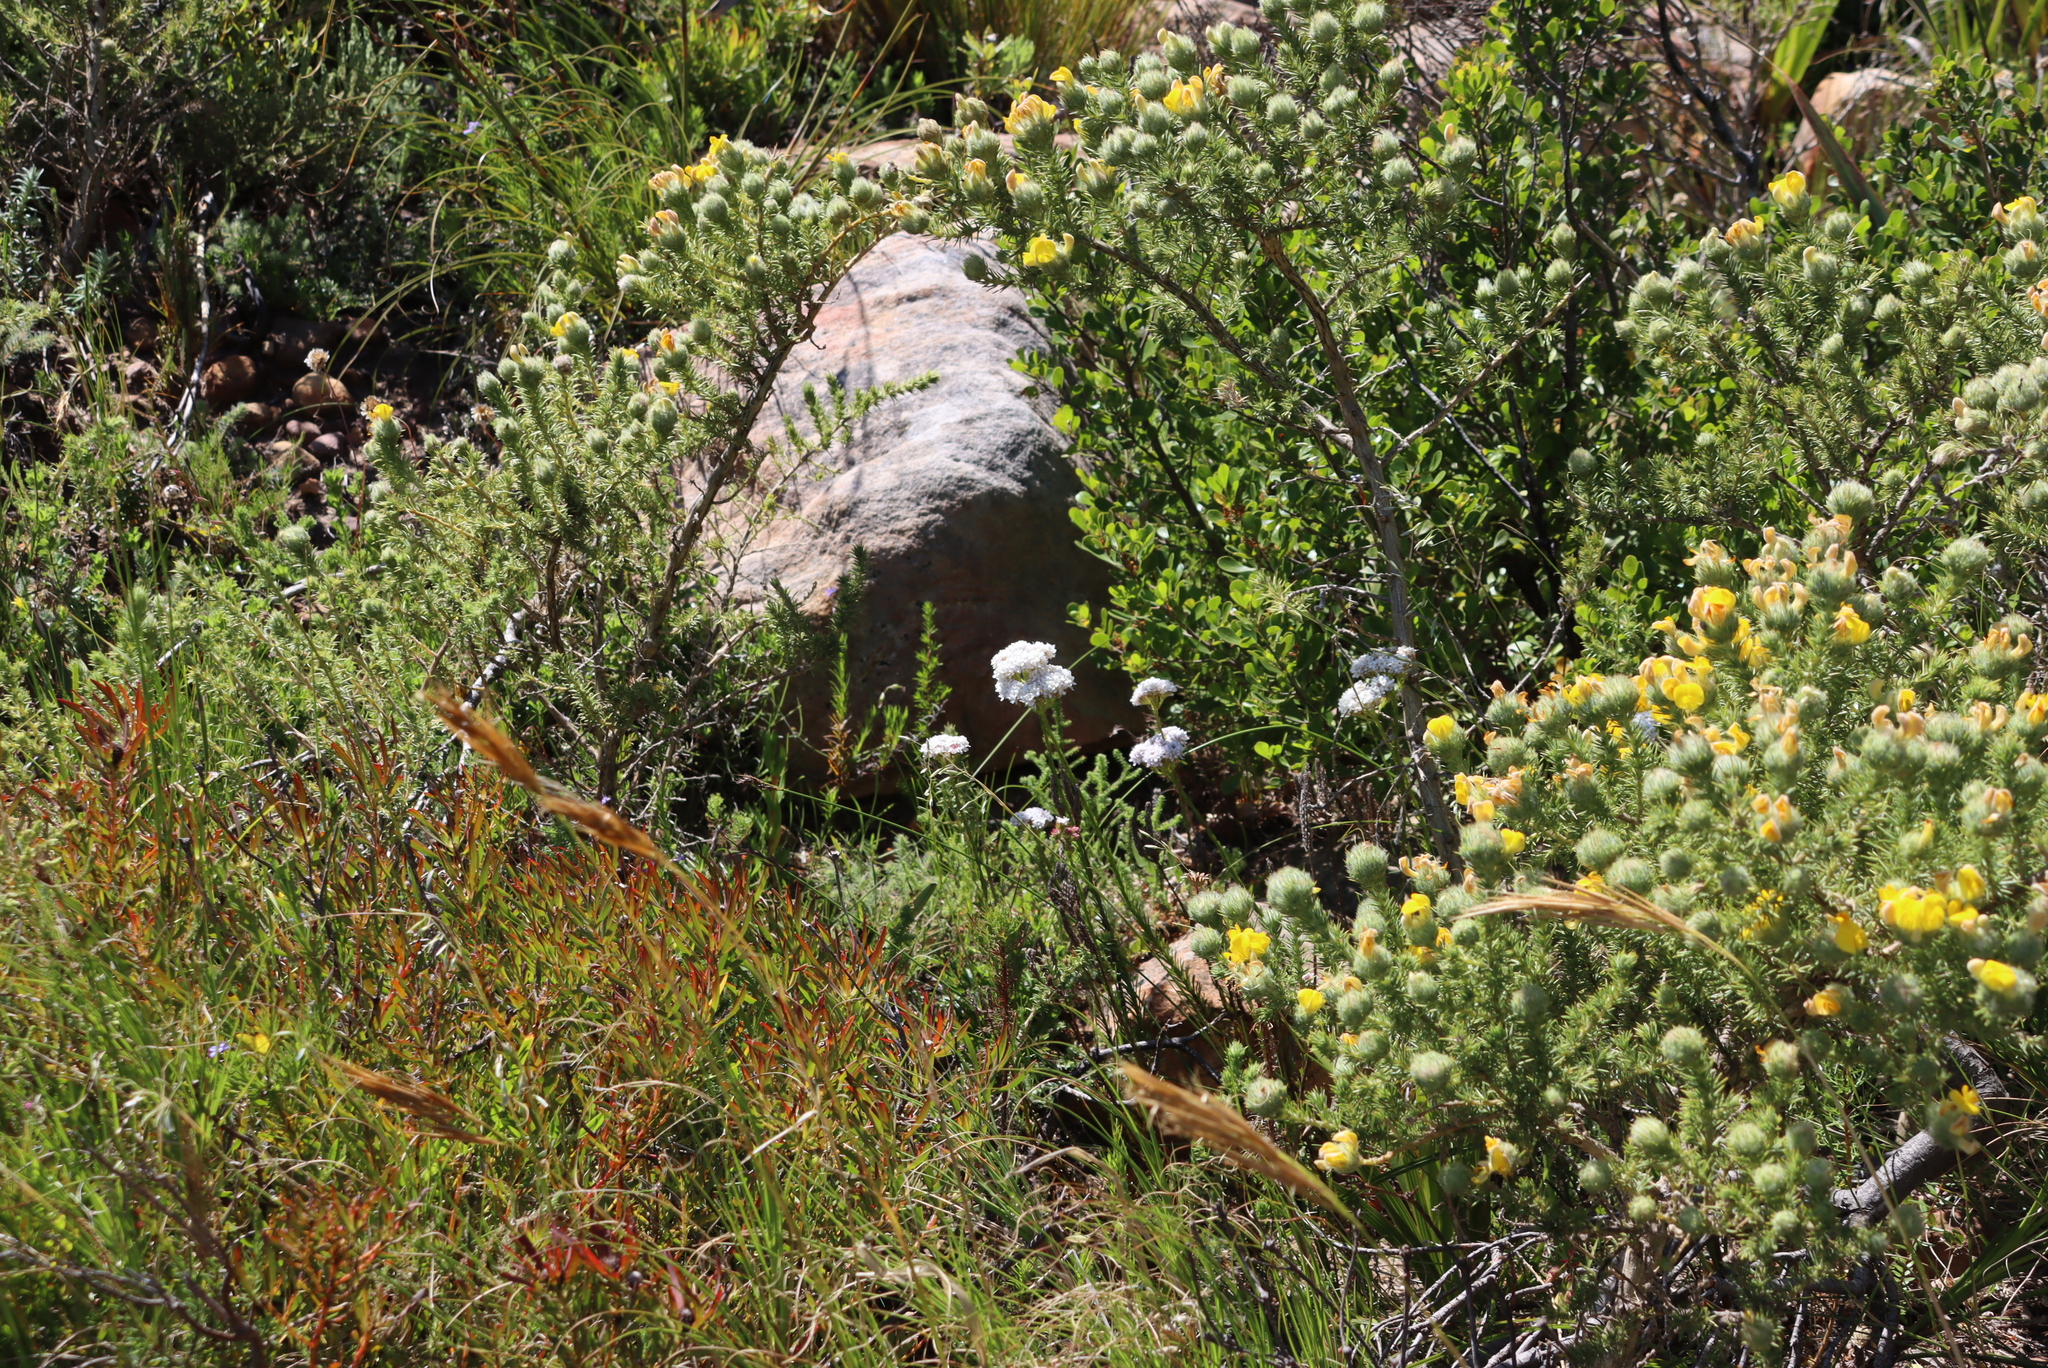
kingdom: Plantae
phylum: Tracheophyta
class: Magnoliopsida
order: Lamiales
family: Scrophulariaceae
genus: Pseudoselago
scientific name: Pseudoselago spuria
